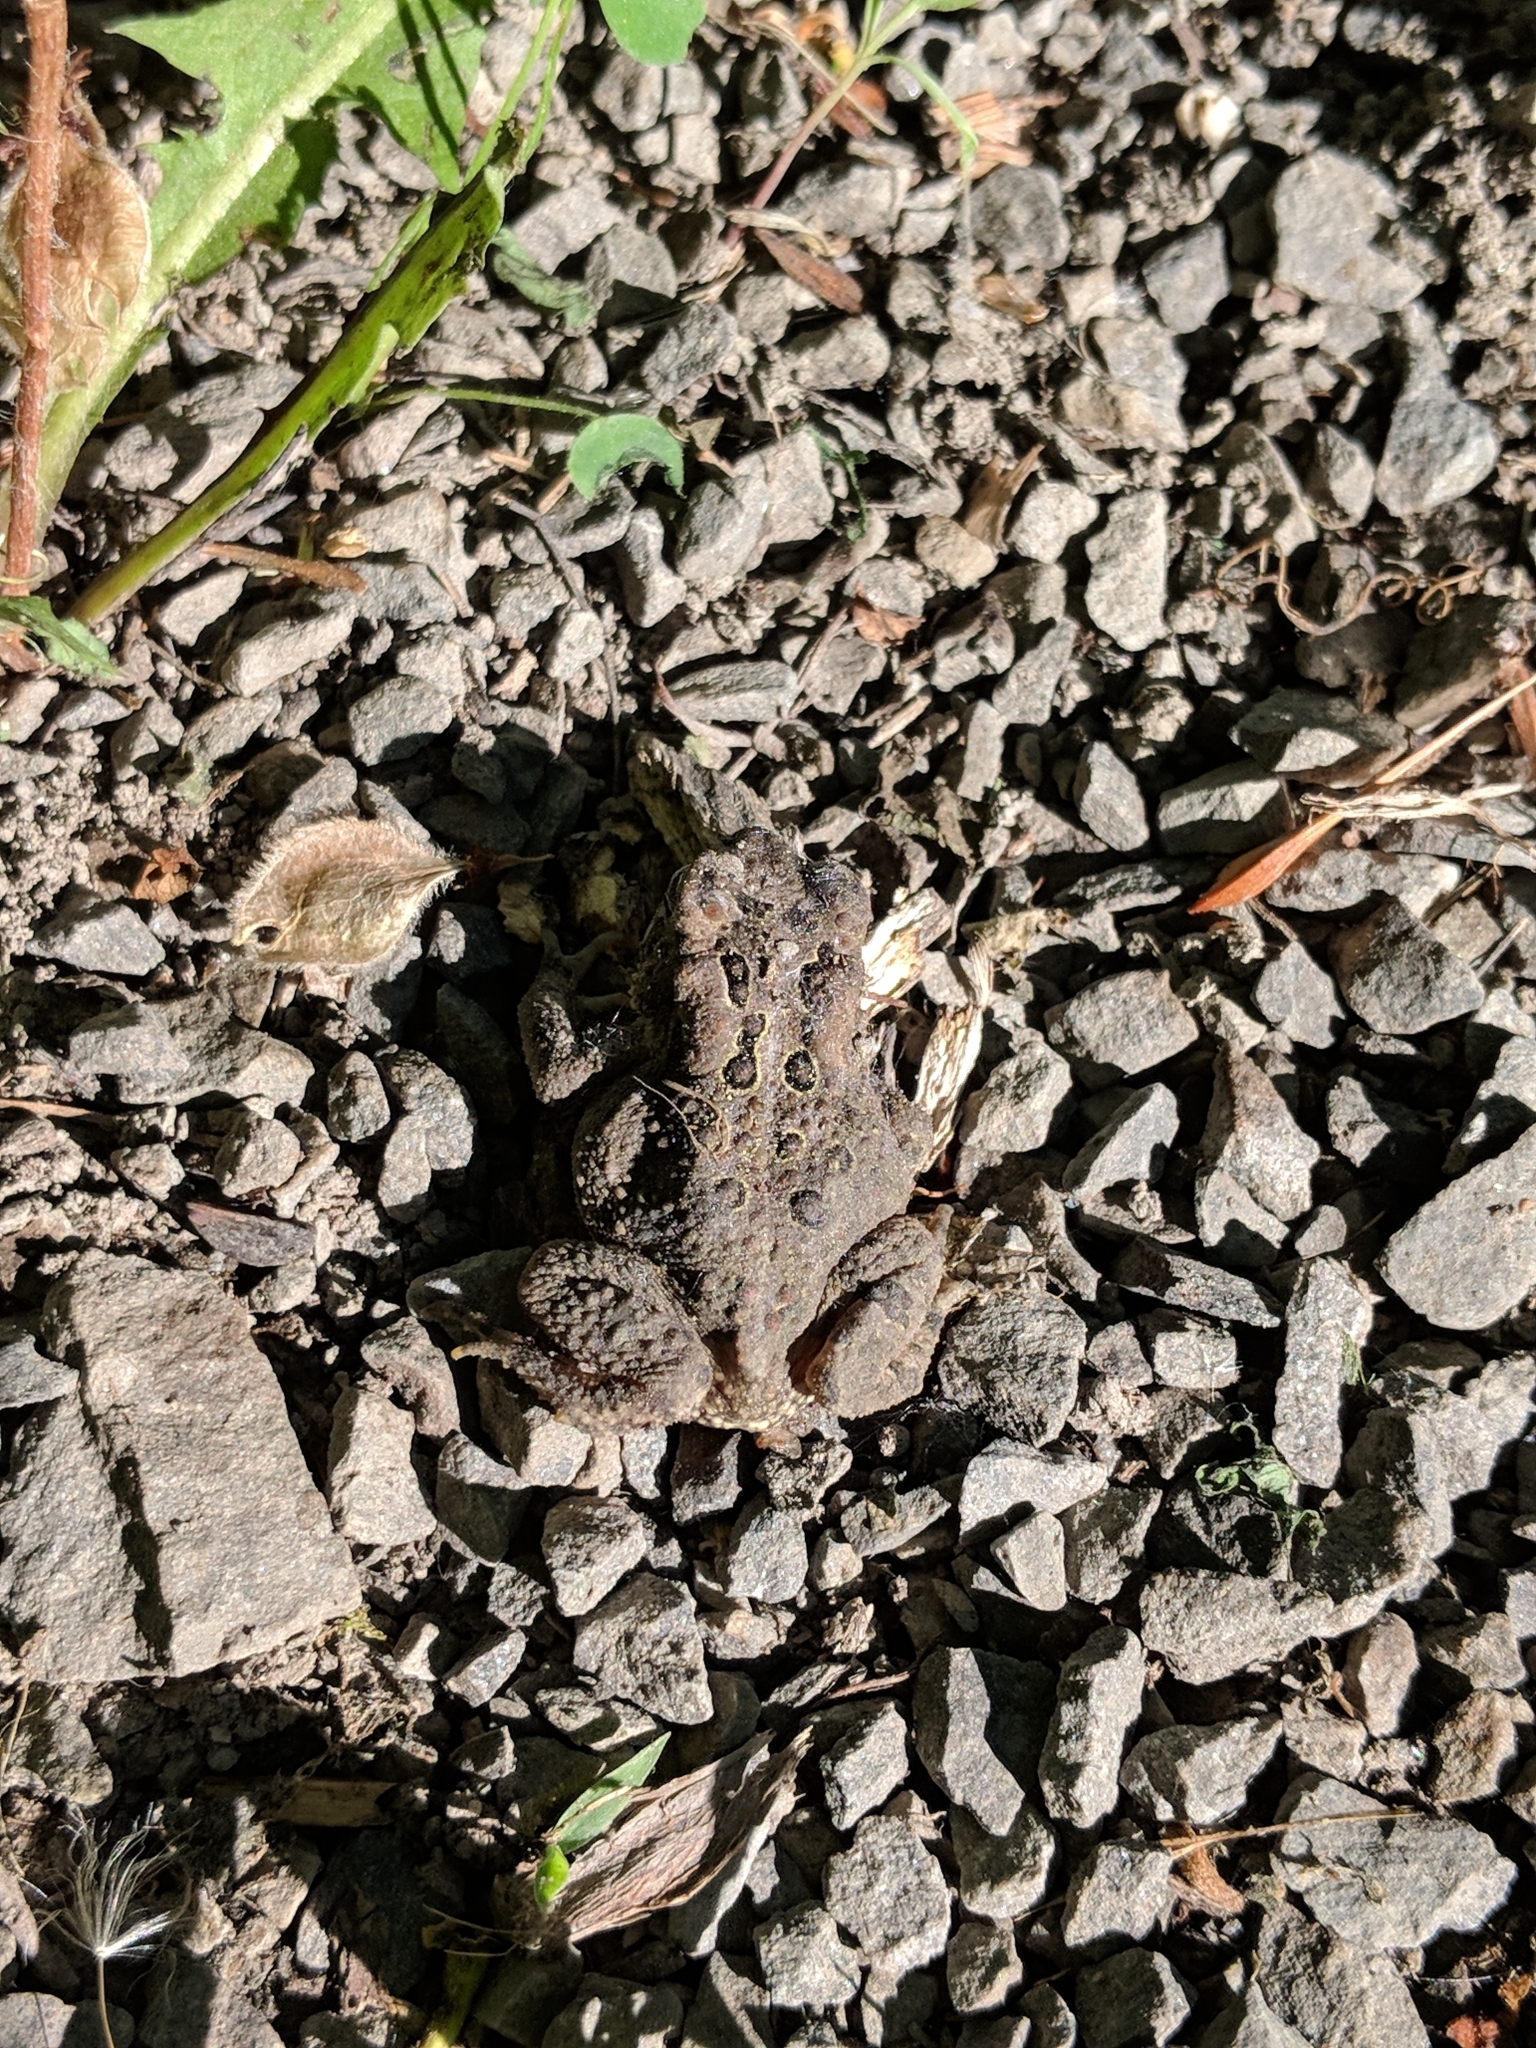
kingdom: Animalia
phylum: Chordata
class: Amphibia
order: Anura
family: Bufonidae
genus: Anaxyrus
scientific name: Anaxyrus americanus
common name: American toad
